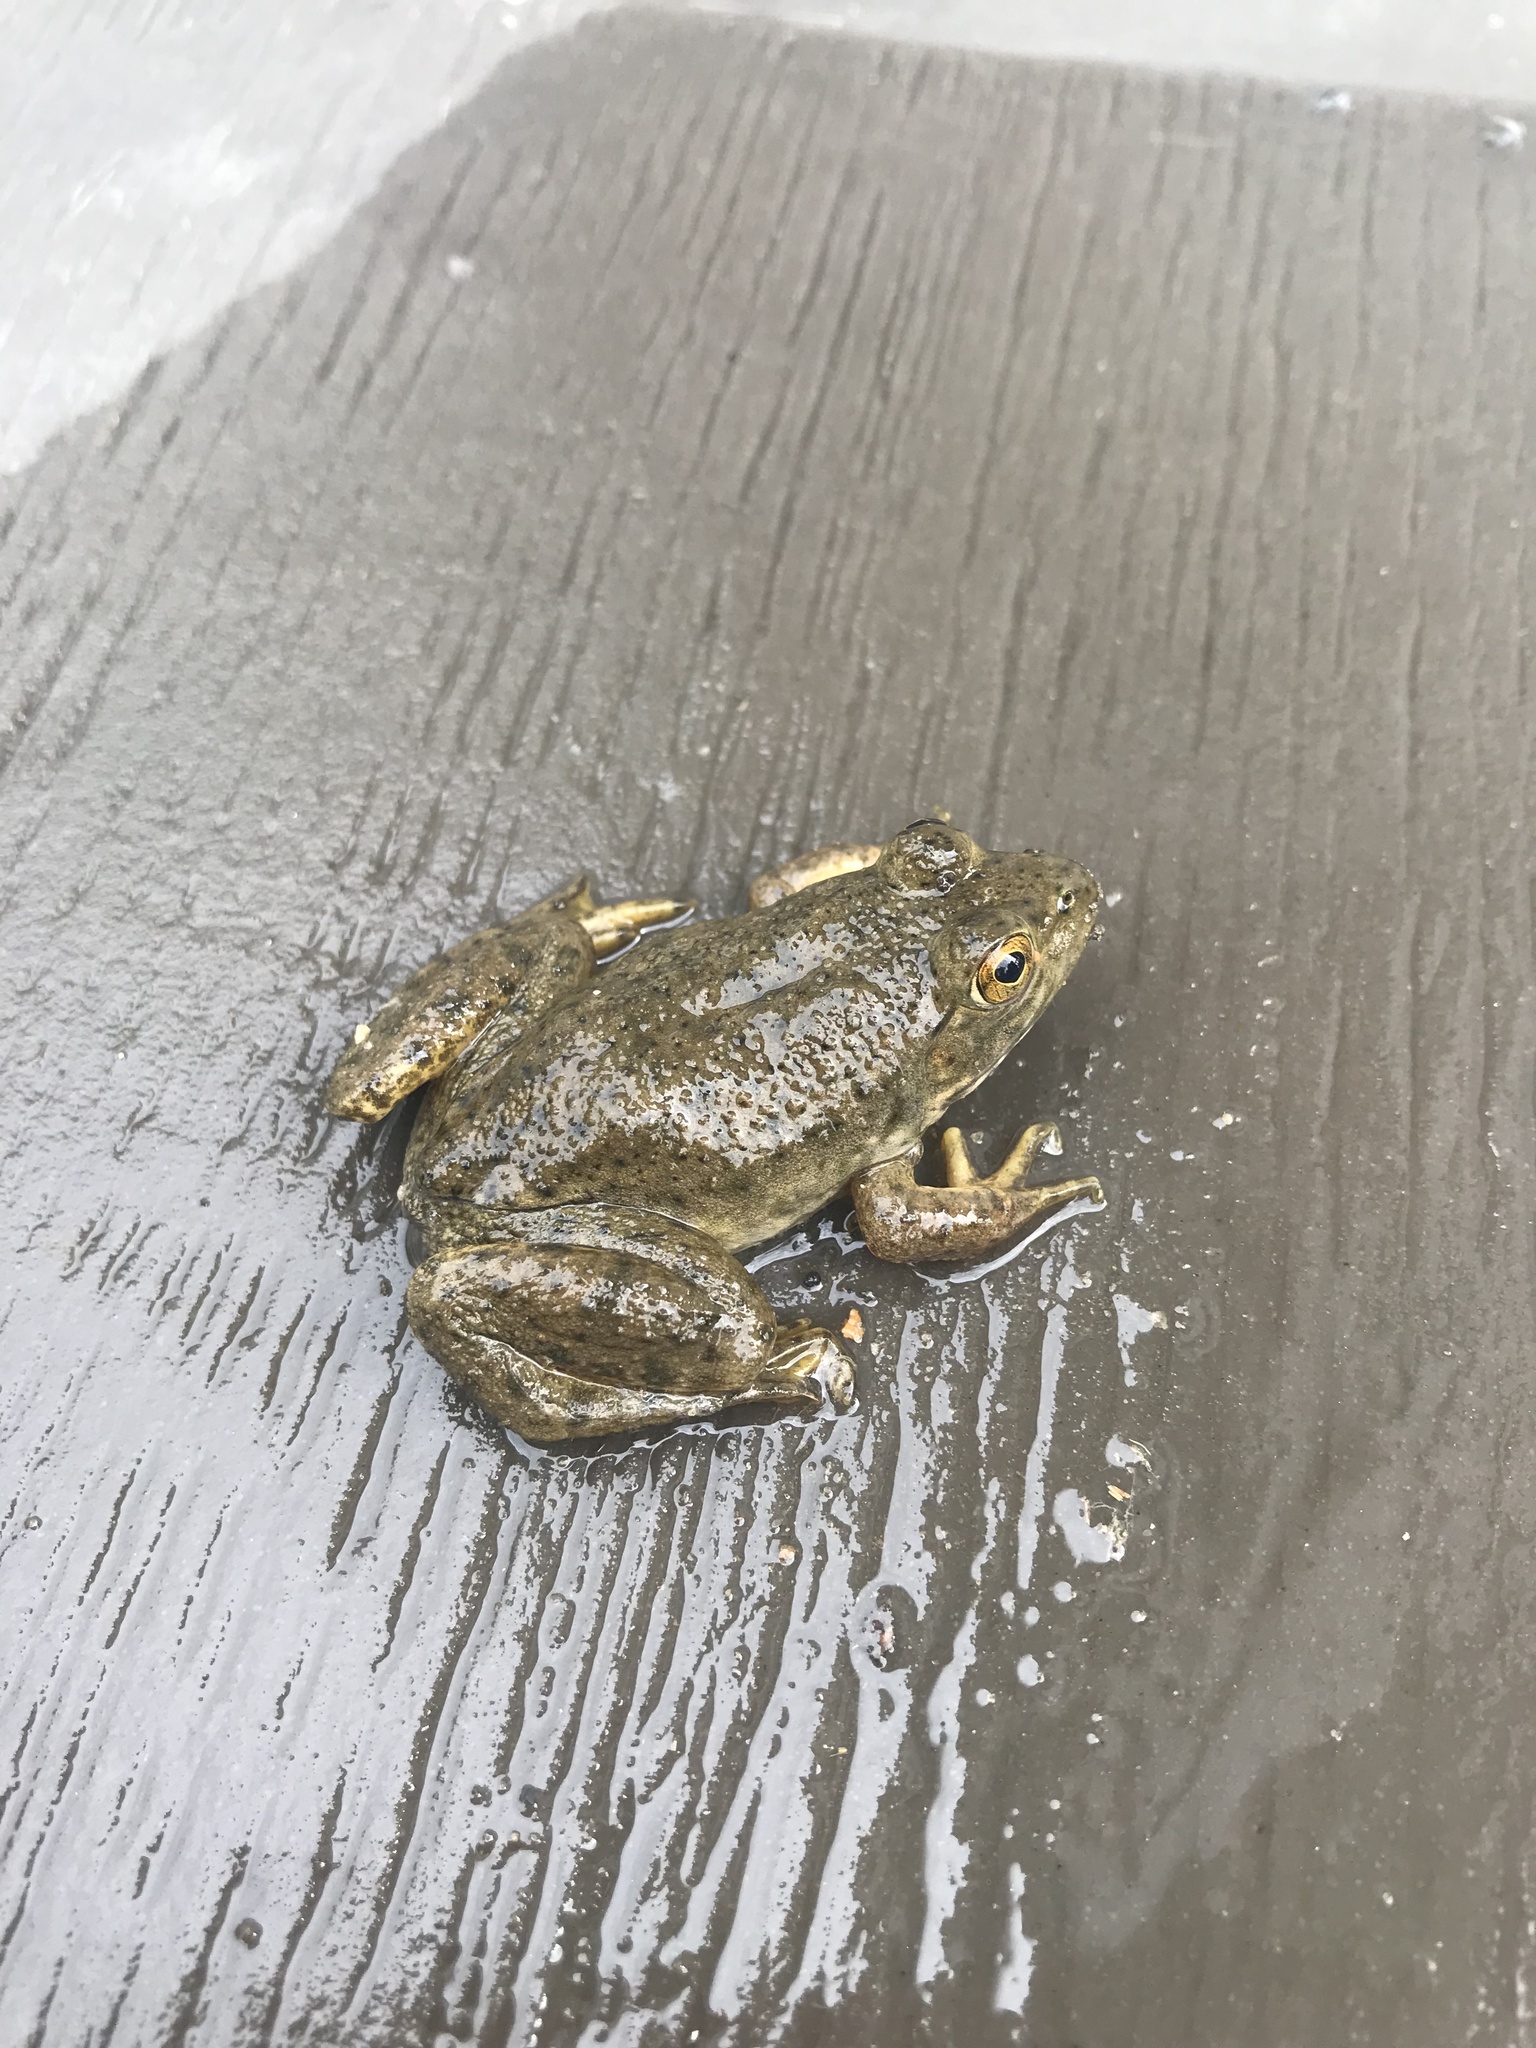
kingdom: Animalia
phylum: Chordata
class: Amphibia
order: Anura
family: Ranidae
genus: Lithobates
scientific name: Lithobates catesbeianus
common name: American bullfrog
